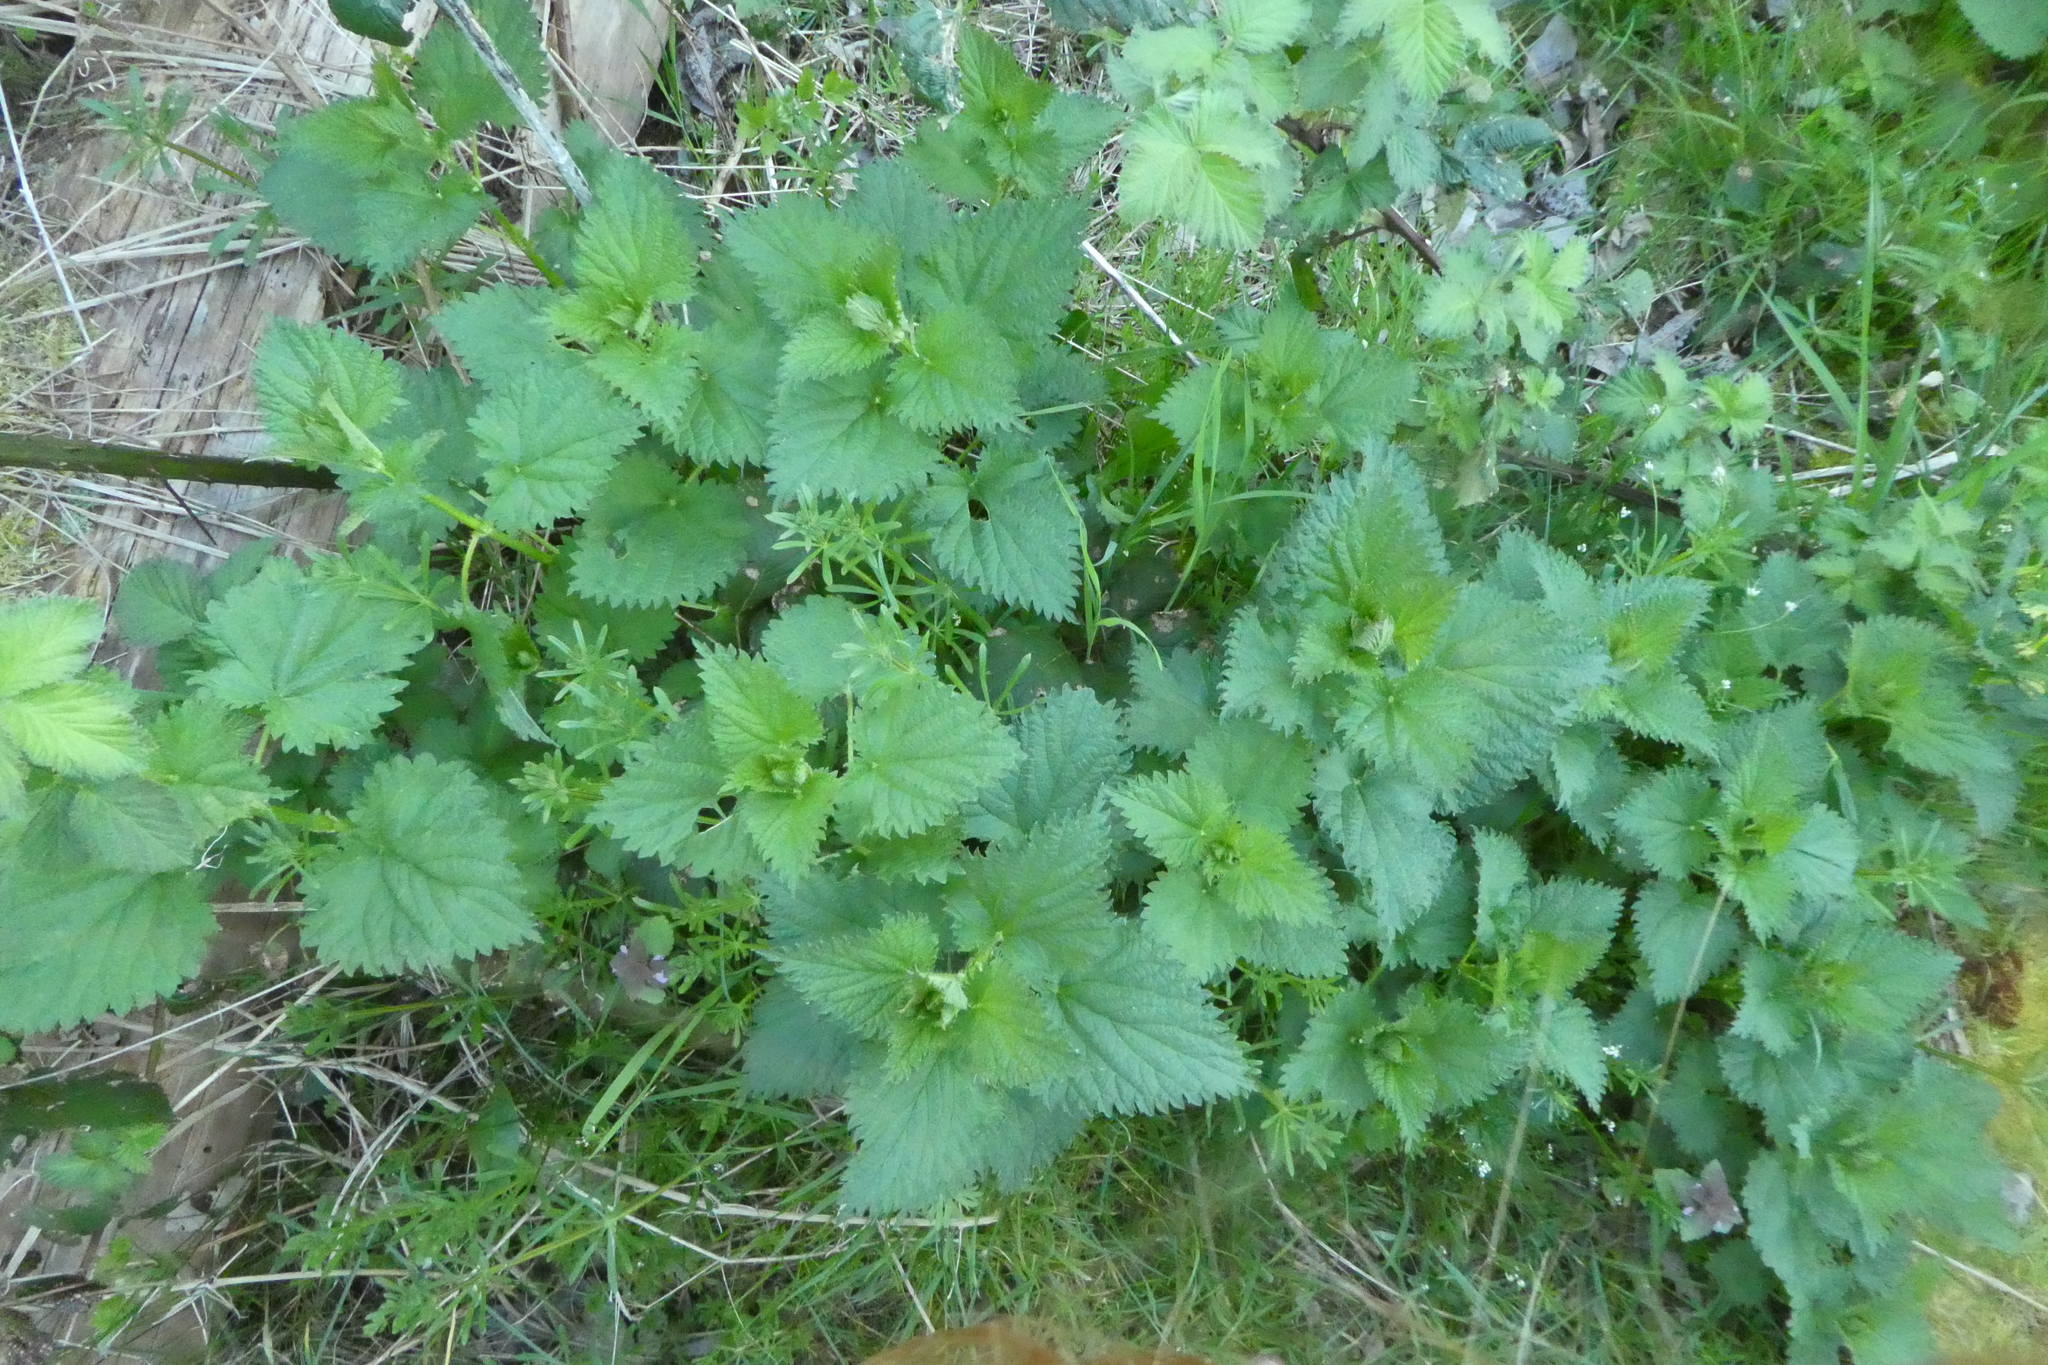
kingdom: Plantae
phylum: Tracheophyta
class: Magnoliopsida
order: Rosales
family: Urticaceae
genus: Urtica
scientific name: Urtica gracilis
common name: Slender stinging nettle
